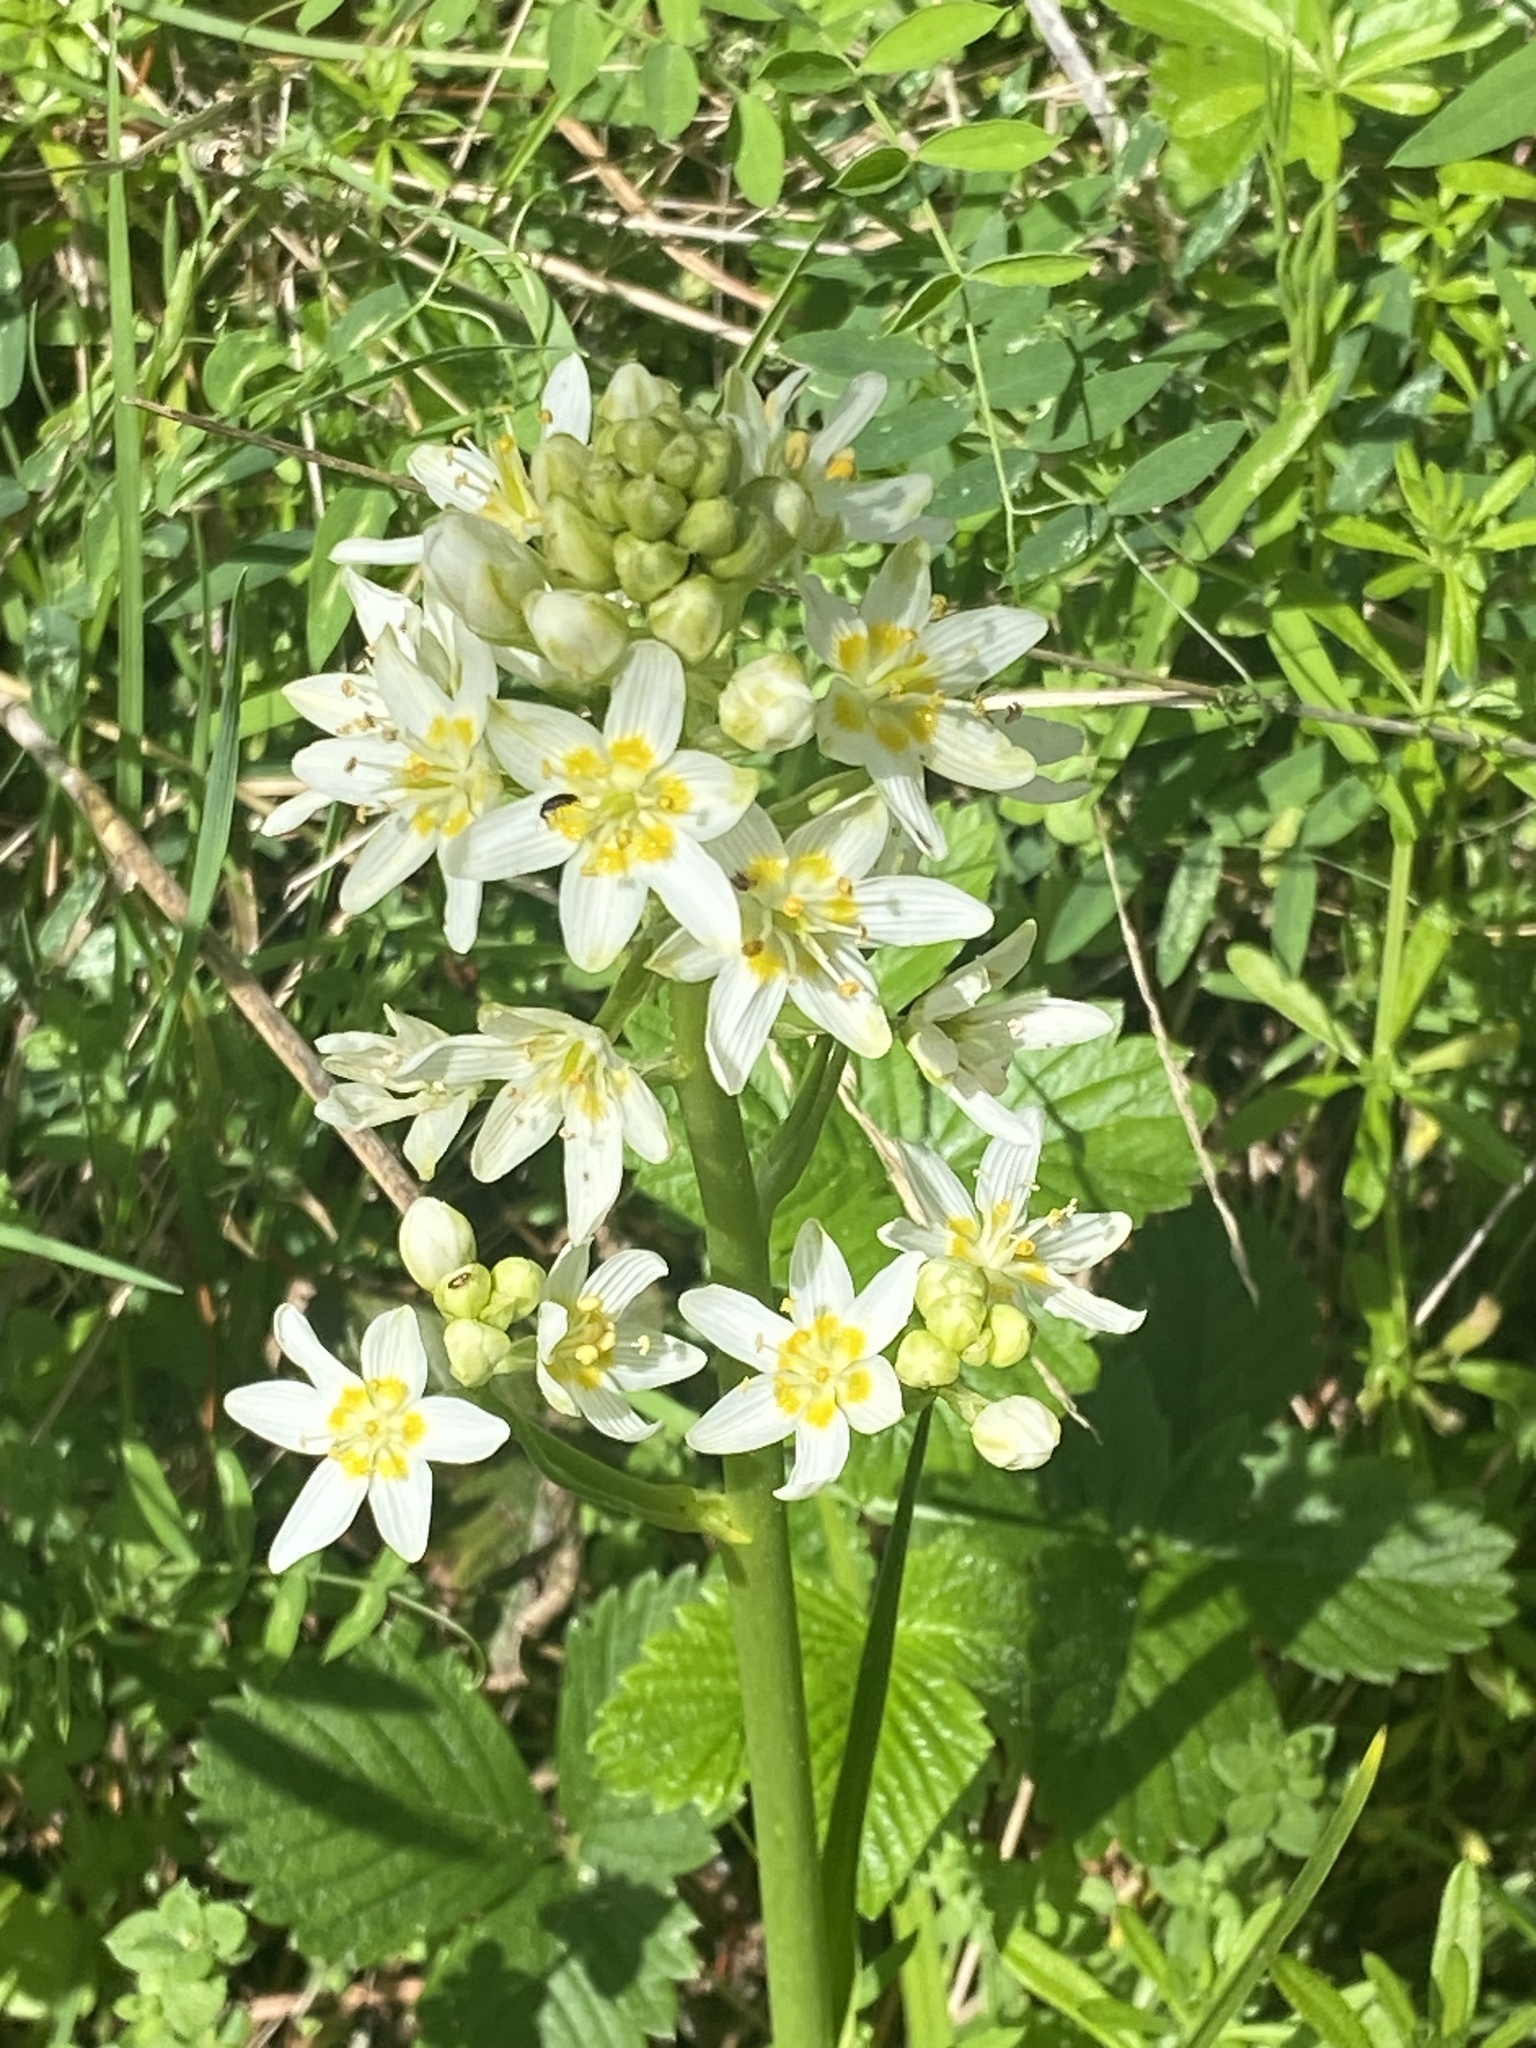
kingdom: Plantae
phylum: Tracheophyta
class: Liliopsida
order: Liliales
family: Melanthiaceae
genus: Toxicoscordion
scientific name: Toxicoscordion fremontii
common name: Fremont's death camas
